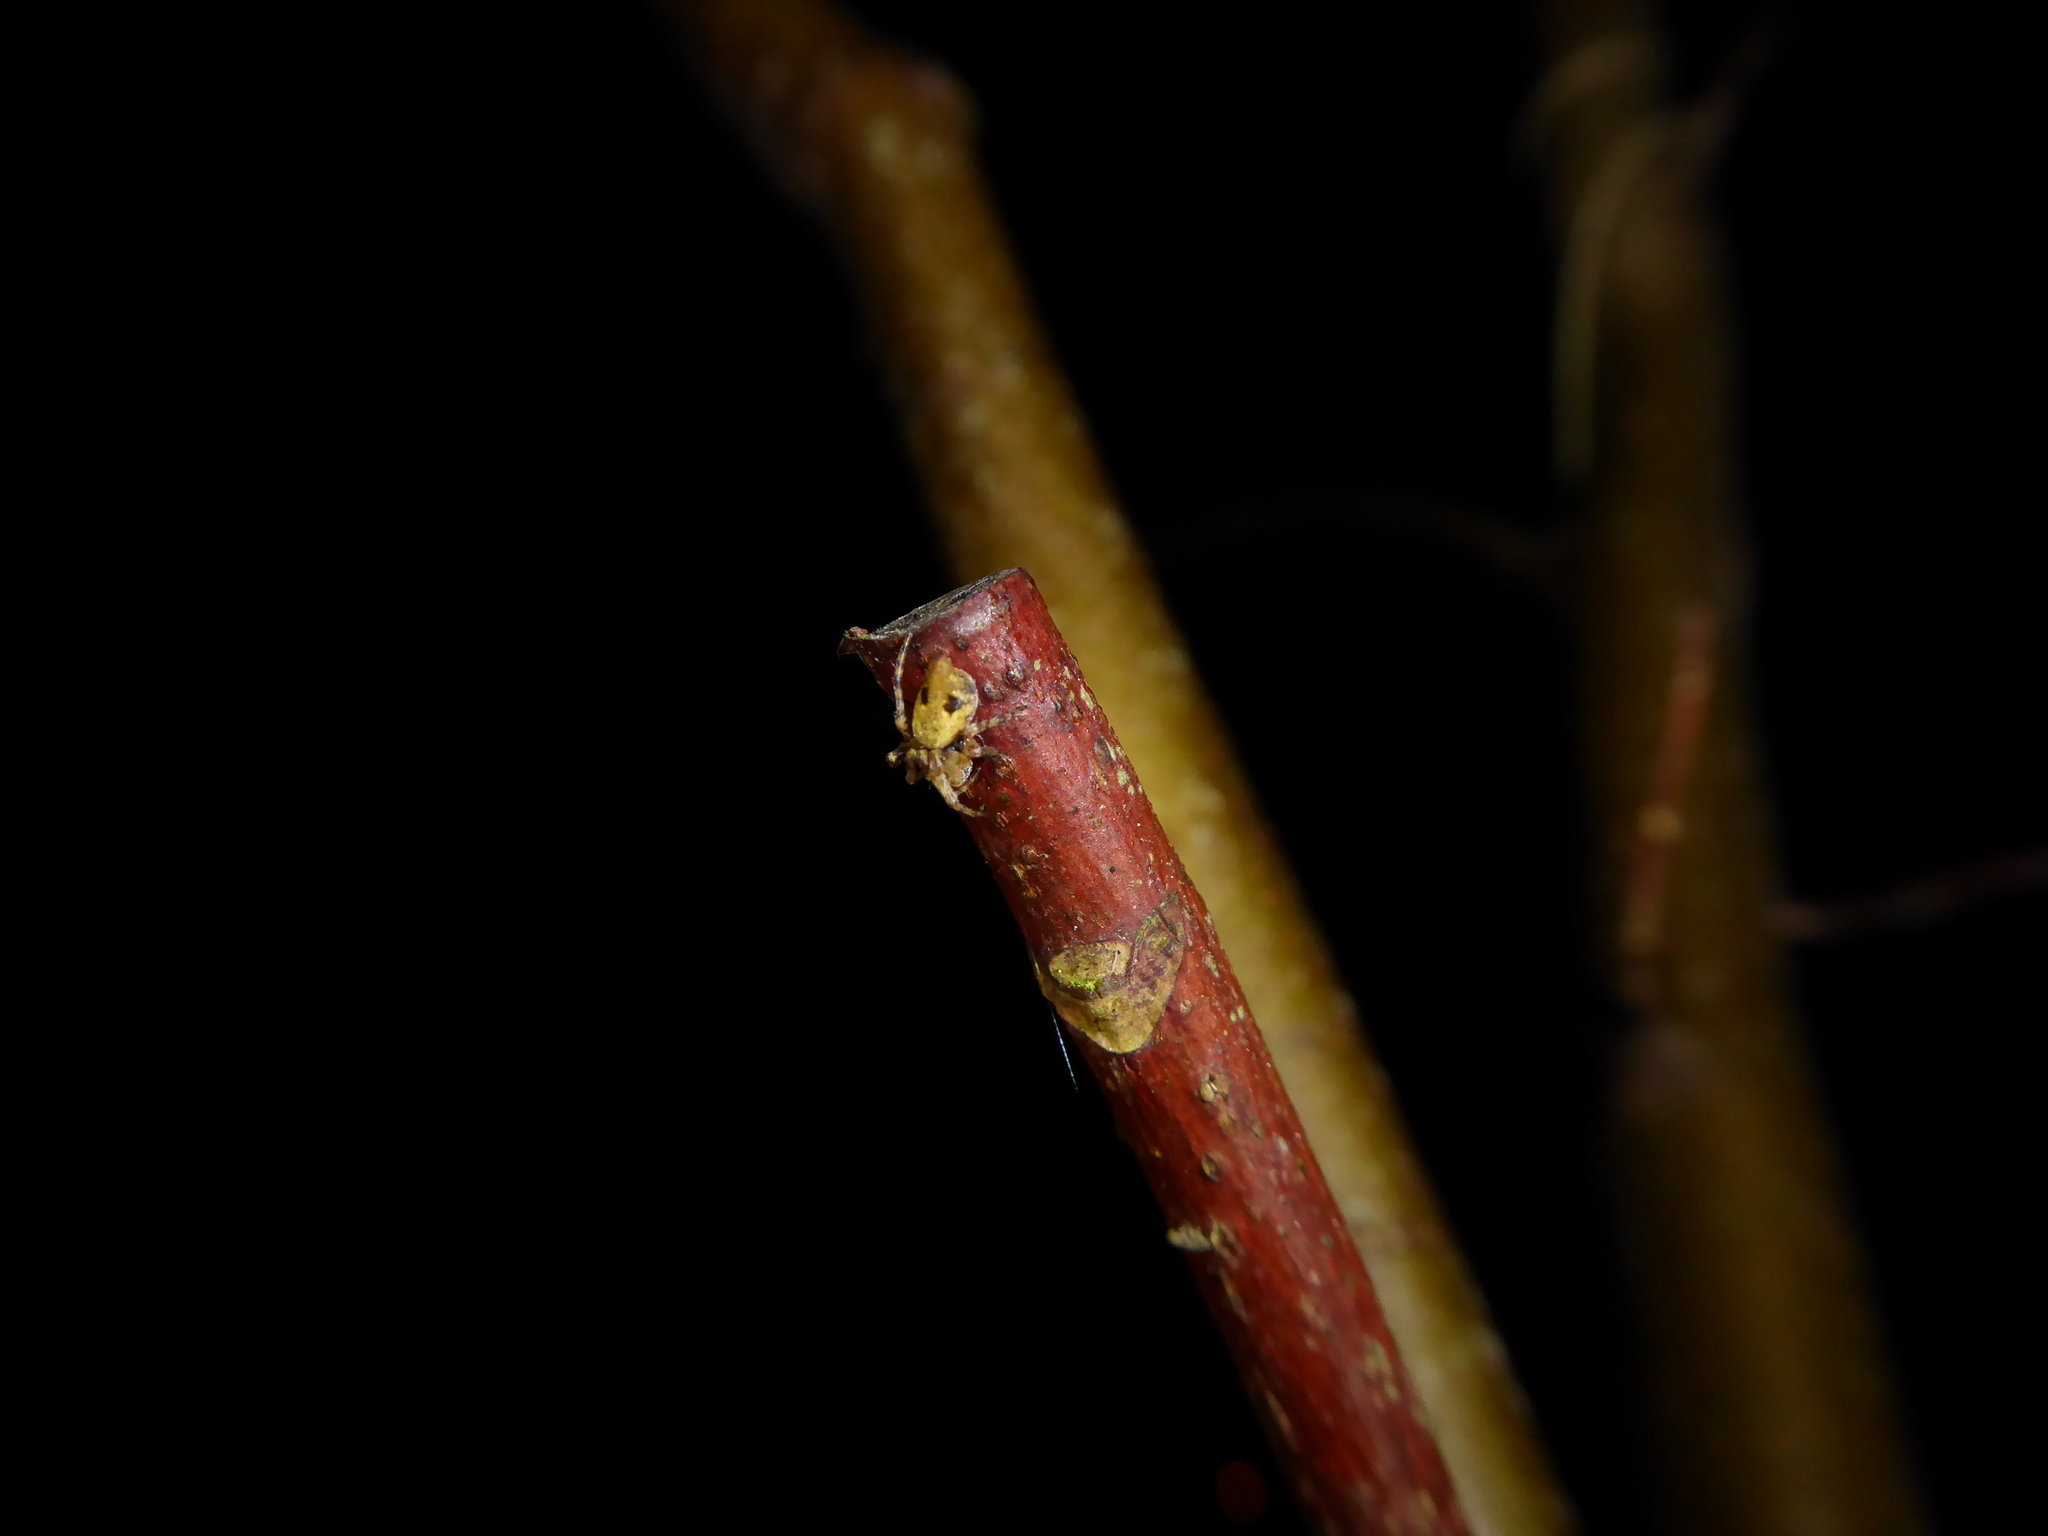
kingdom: Animalia
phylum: Arthropoda
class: Arachnida
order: Araneae
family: Araneidae
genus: Cyclosa
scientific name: Cyclosa conica
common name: Conical trashline orbweaver
